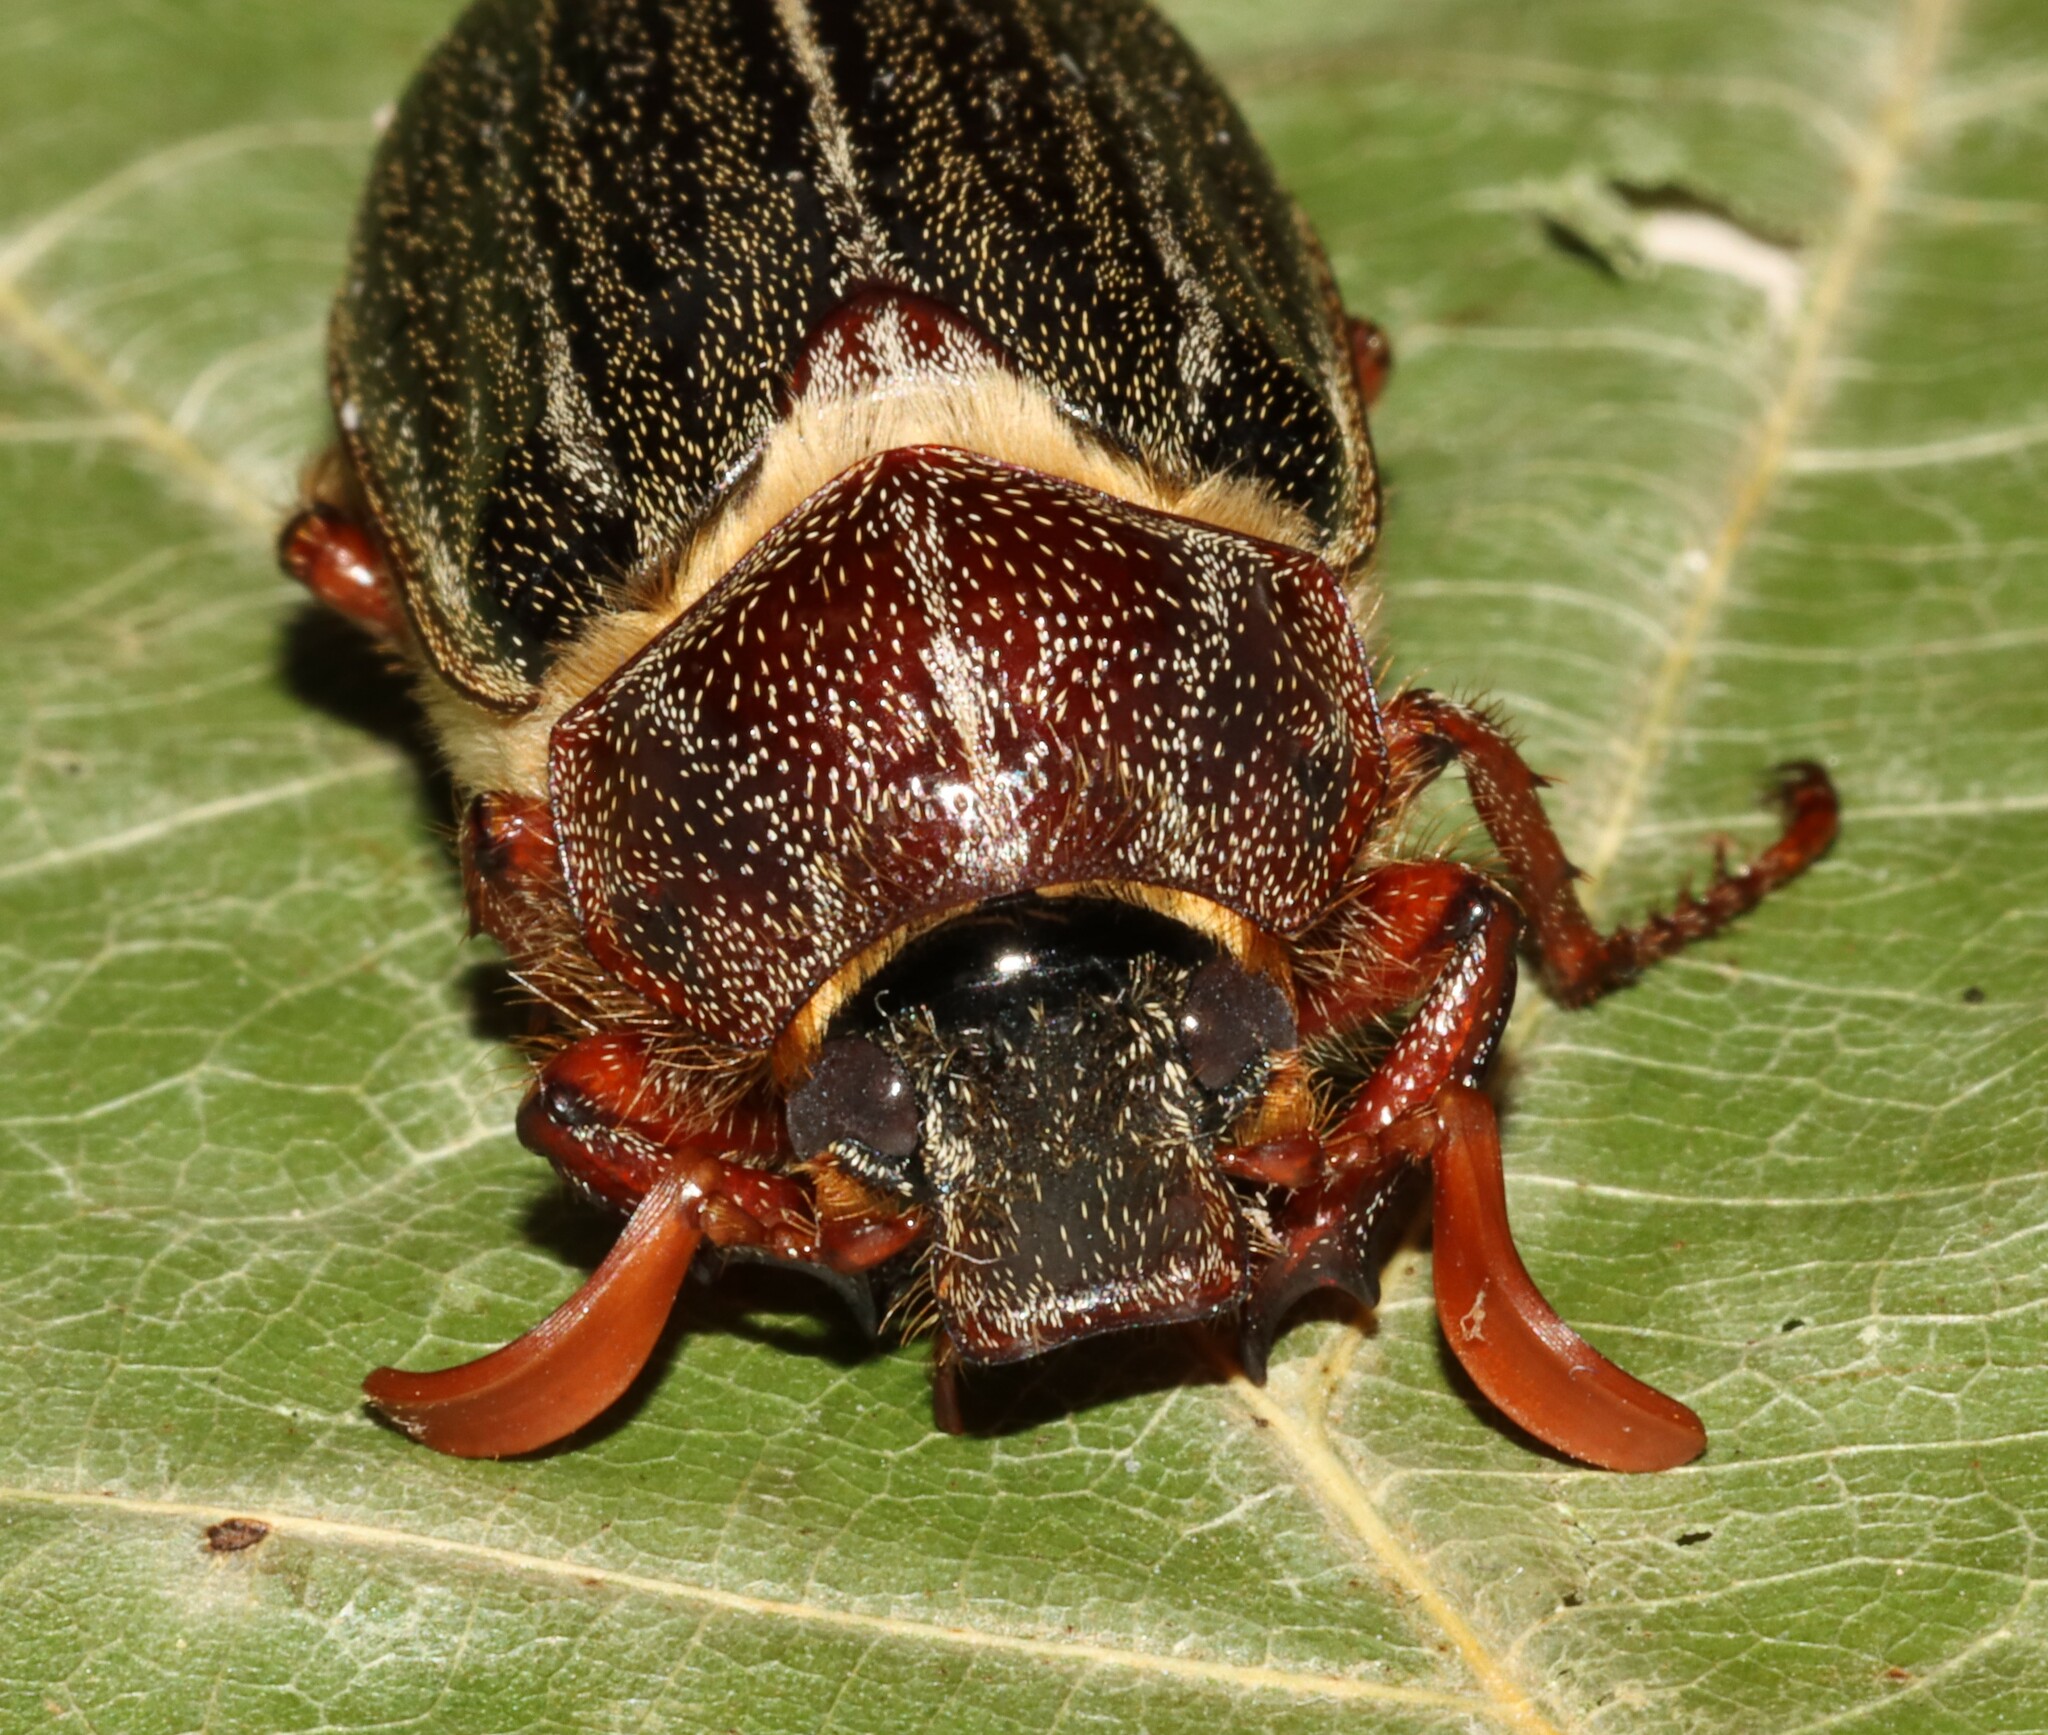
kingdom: Animalia
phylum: Arthropoda
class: Insecta
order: Coleoptera
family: Scarabaeidae
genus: Polyphylla
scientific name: Polyphylla hammondi
